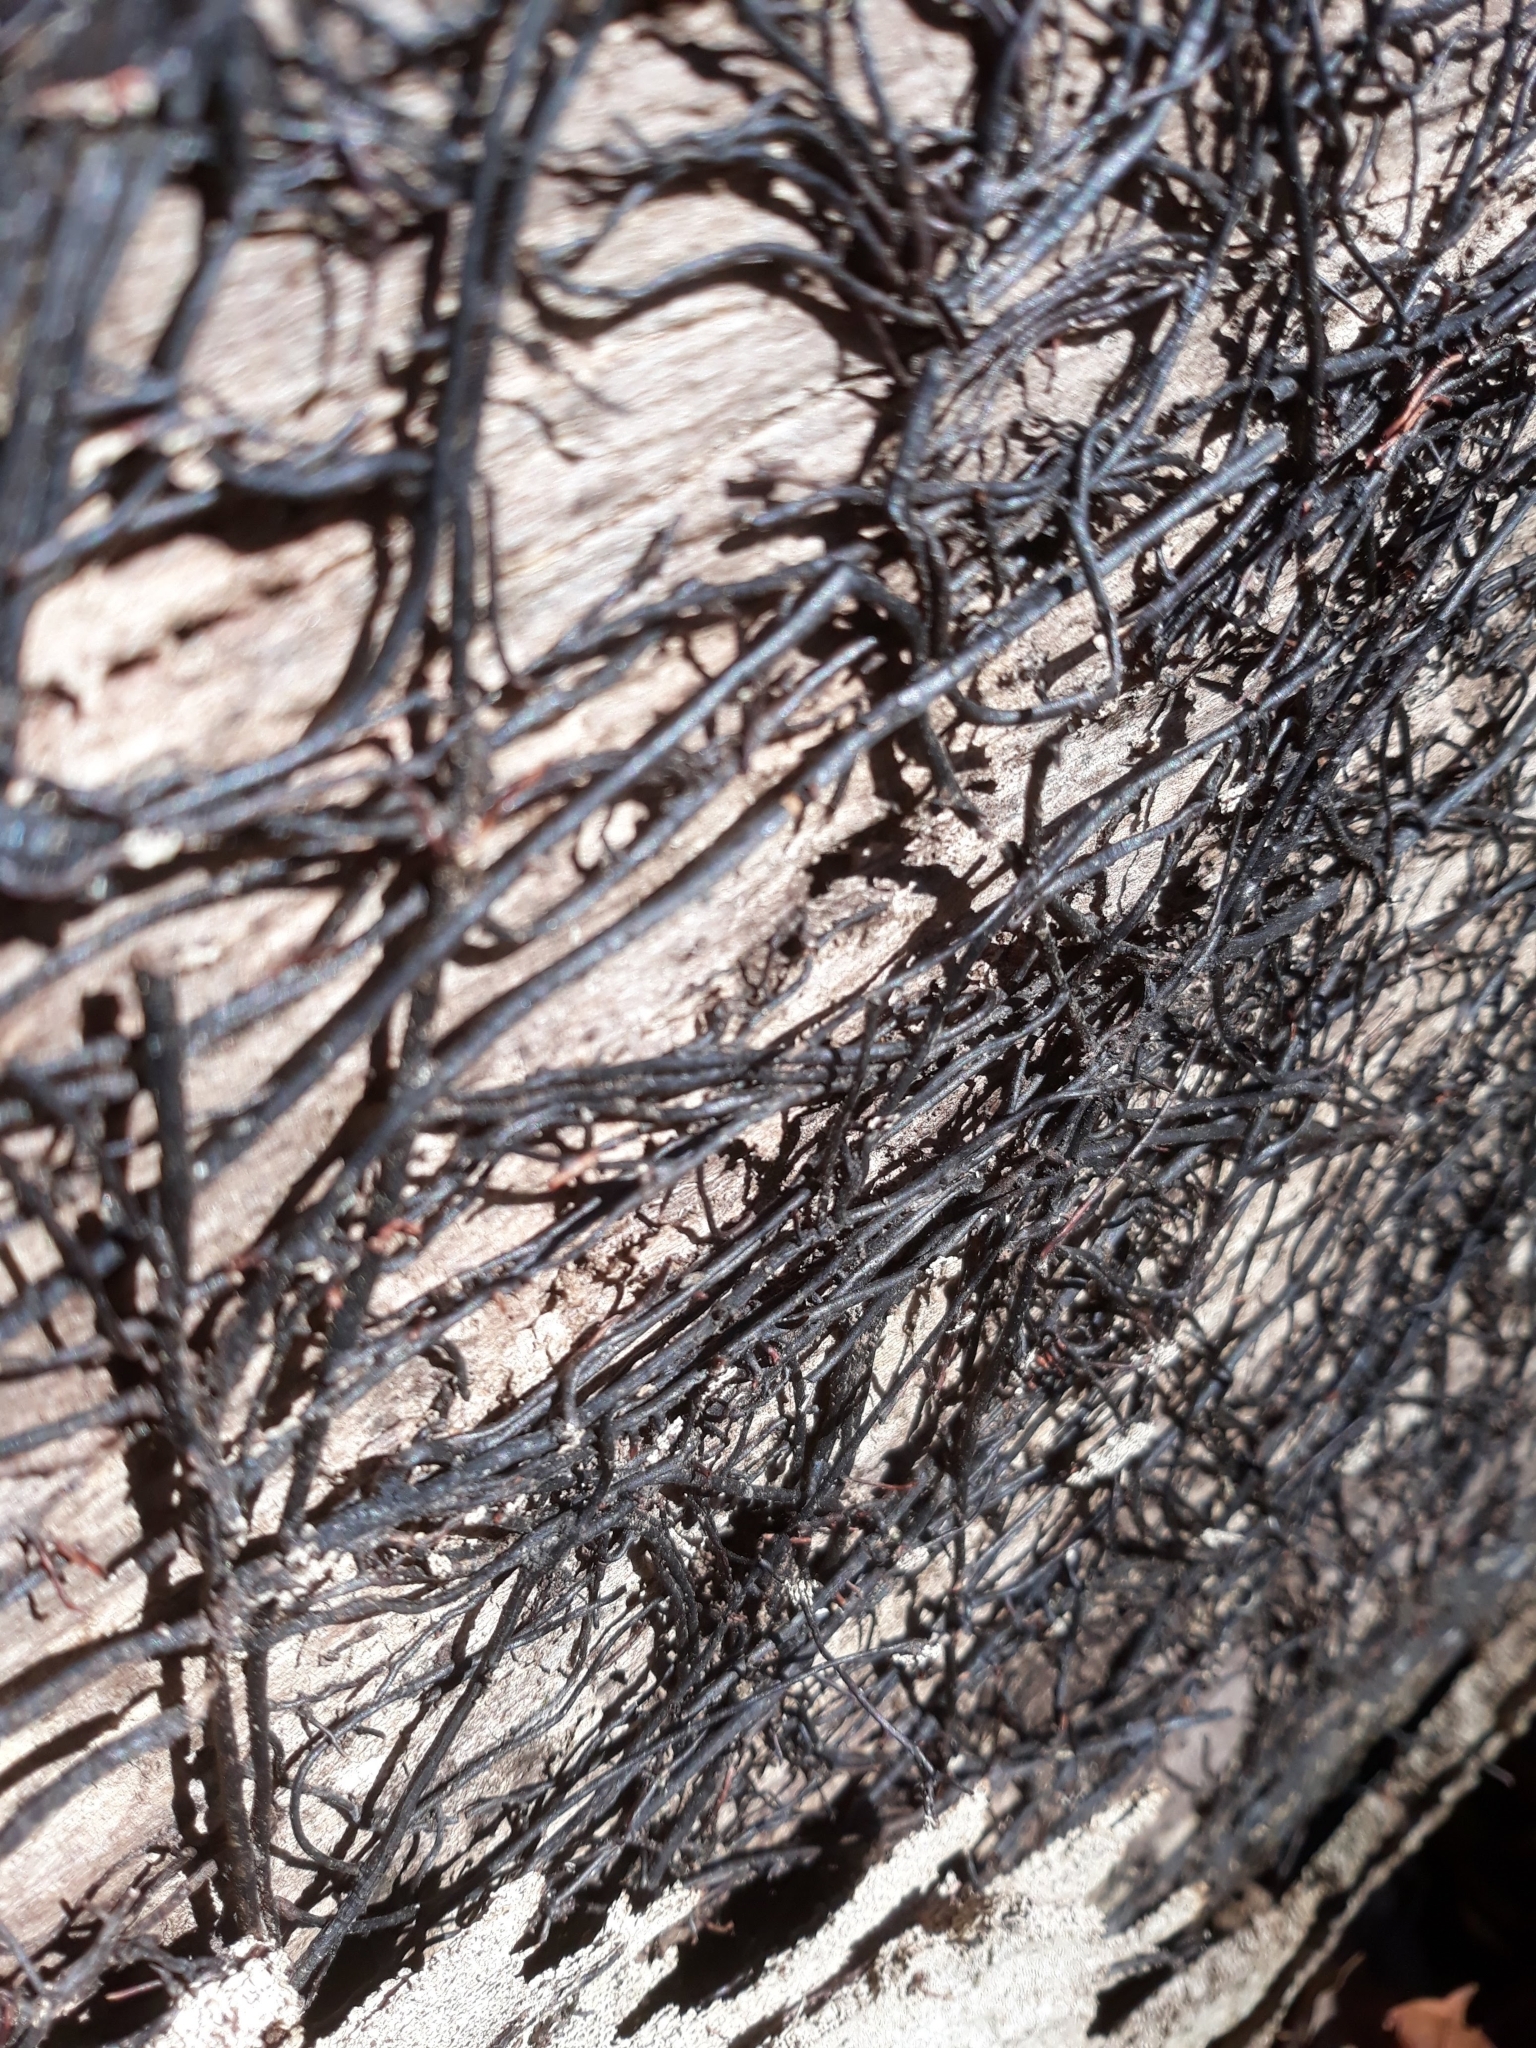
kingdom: Fungi
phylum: Basidiomycota
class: Agaricomycetes
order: Agaricales
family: Physalacriaceae
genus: Armillaria
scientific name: Armillaria
